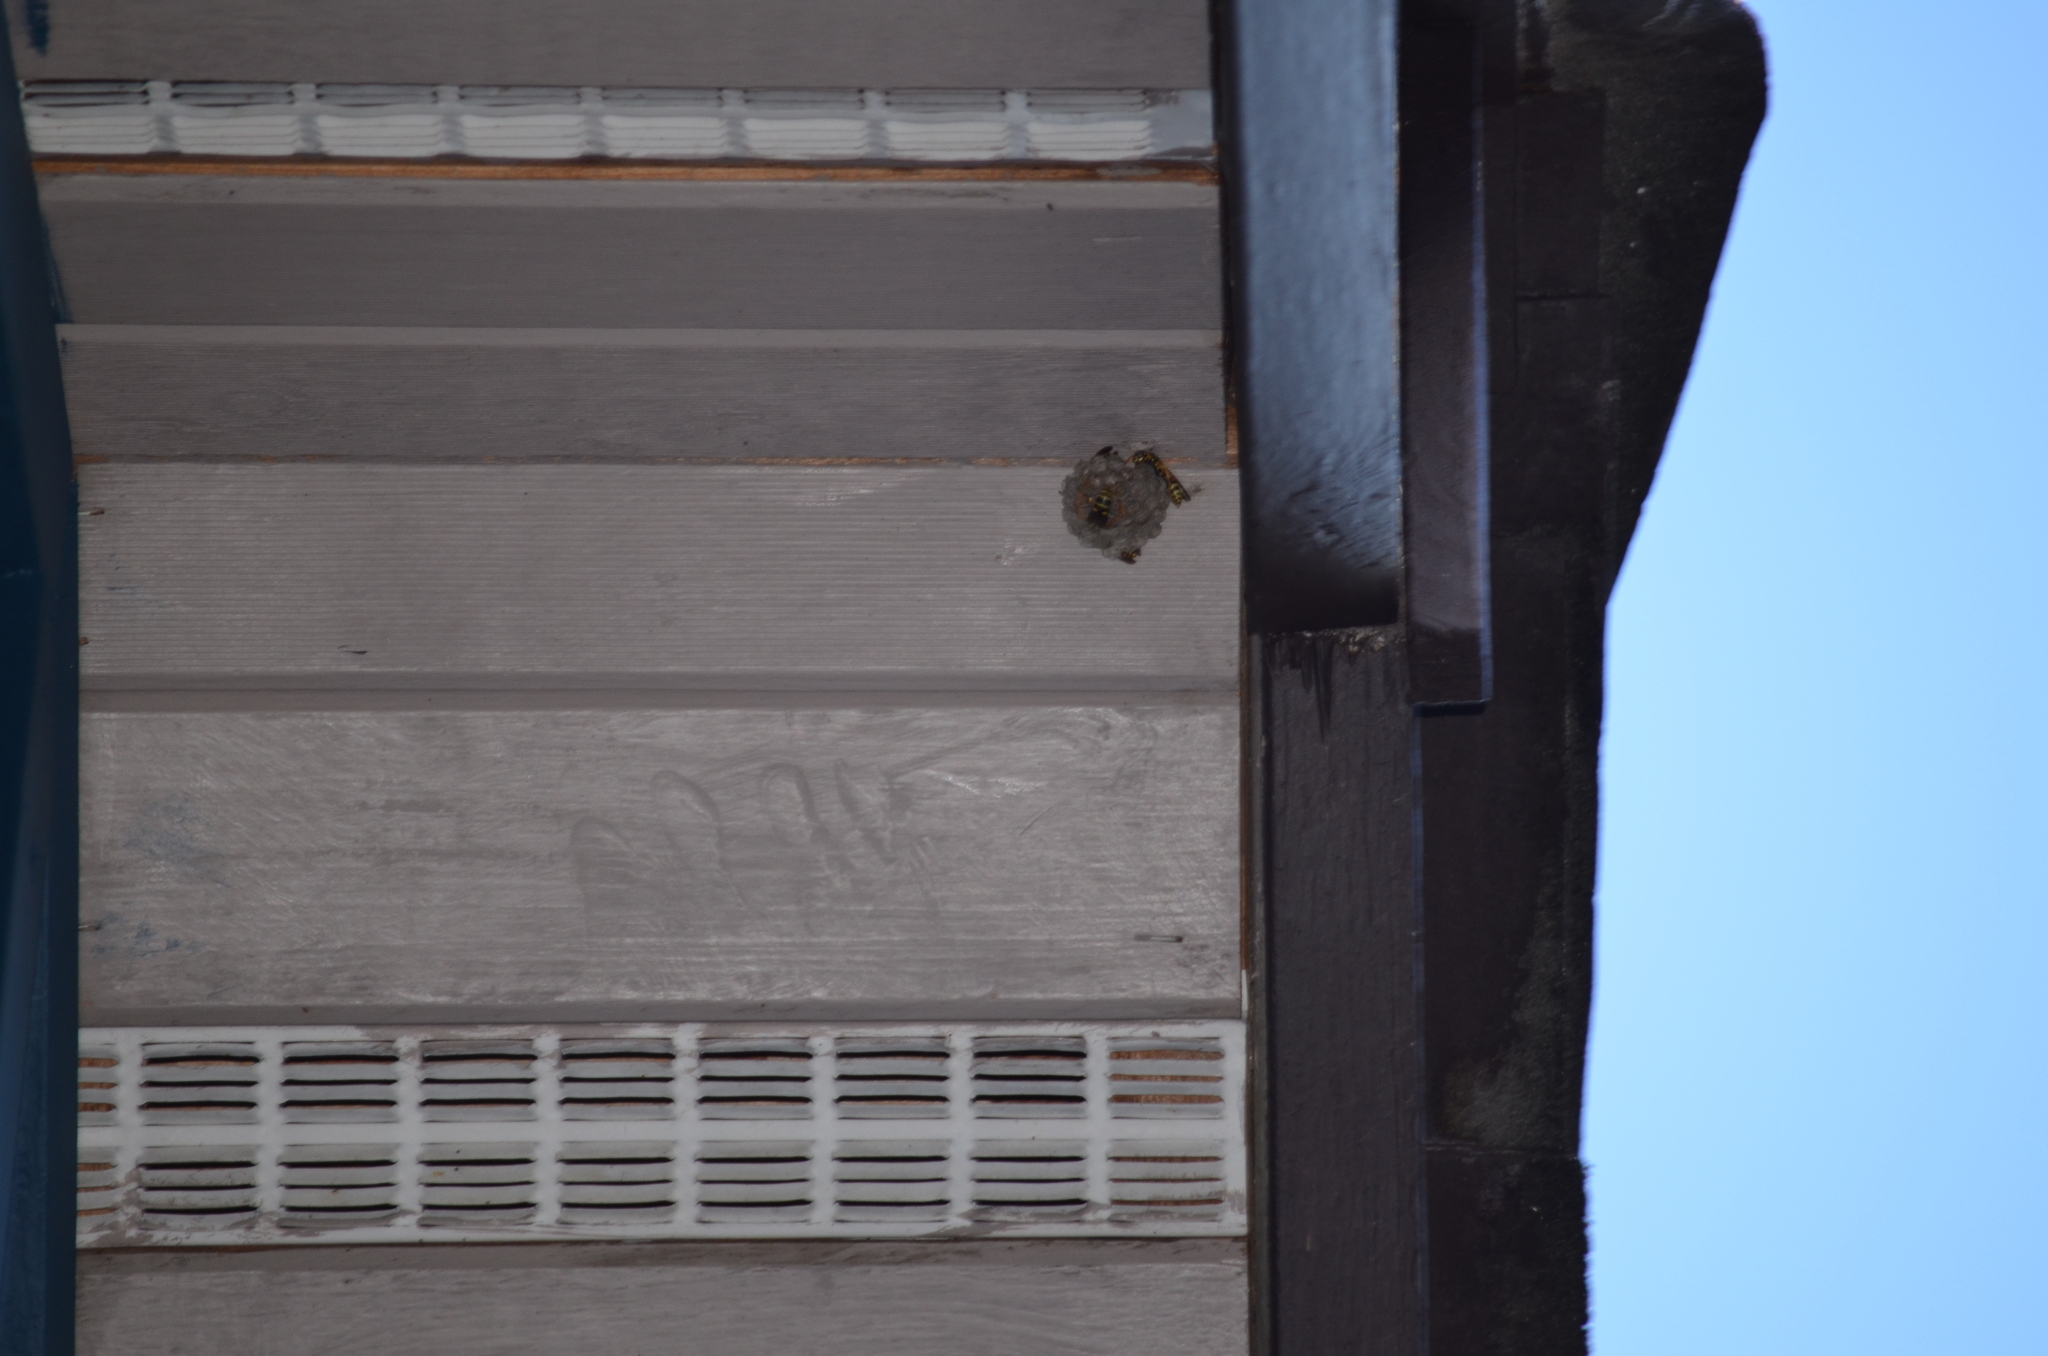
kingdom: Animalia
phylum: Arthropoda
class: Insecta
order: Hymenoptera
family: Eumenidae
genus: Polistes
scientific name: Polistes dominula
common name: Paper wasp
